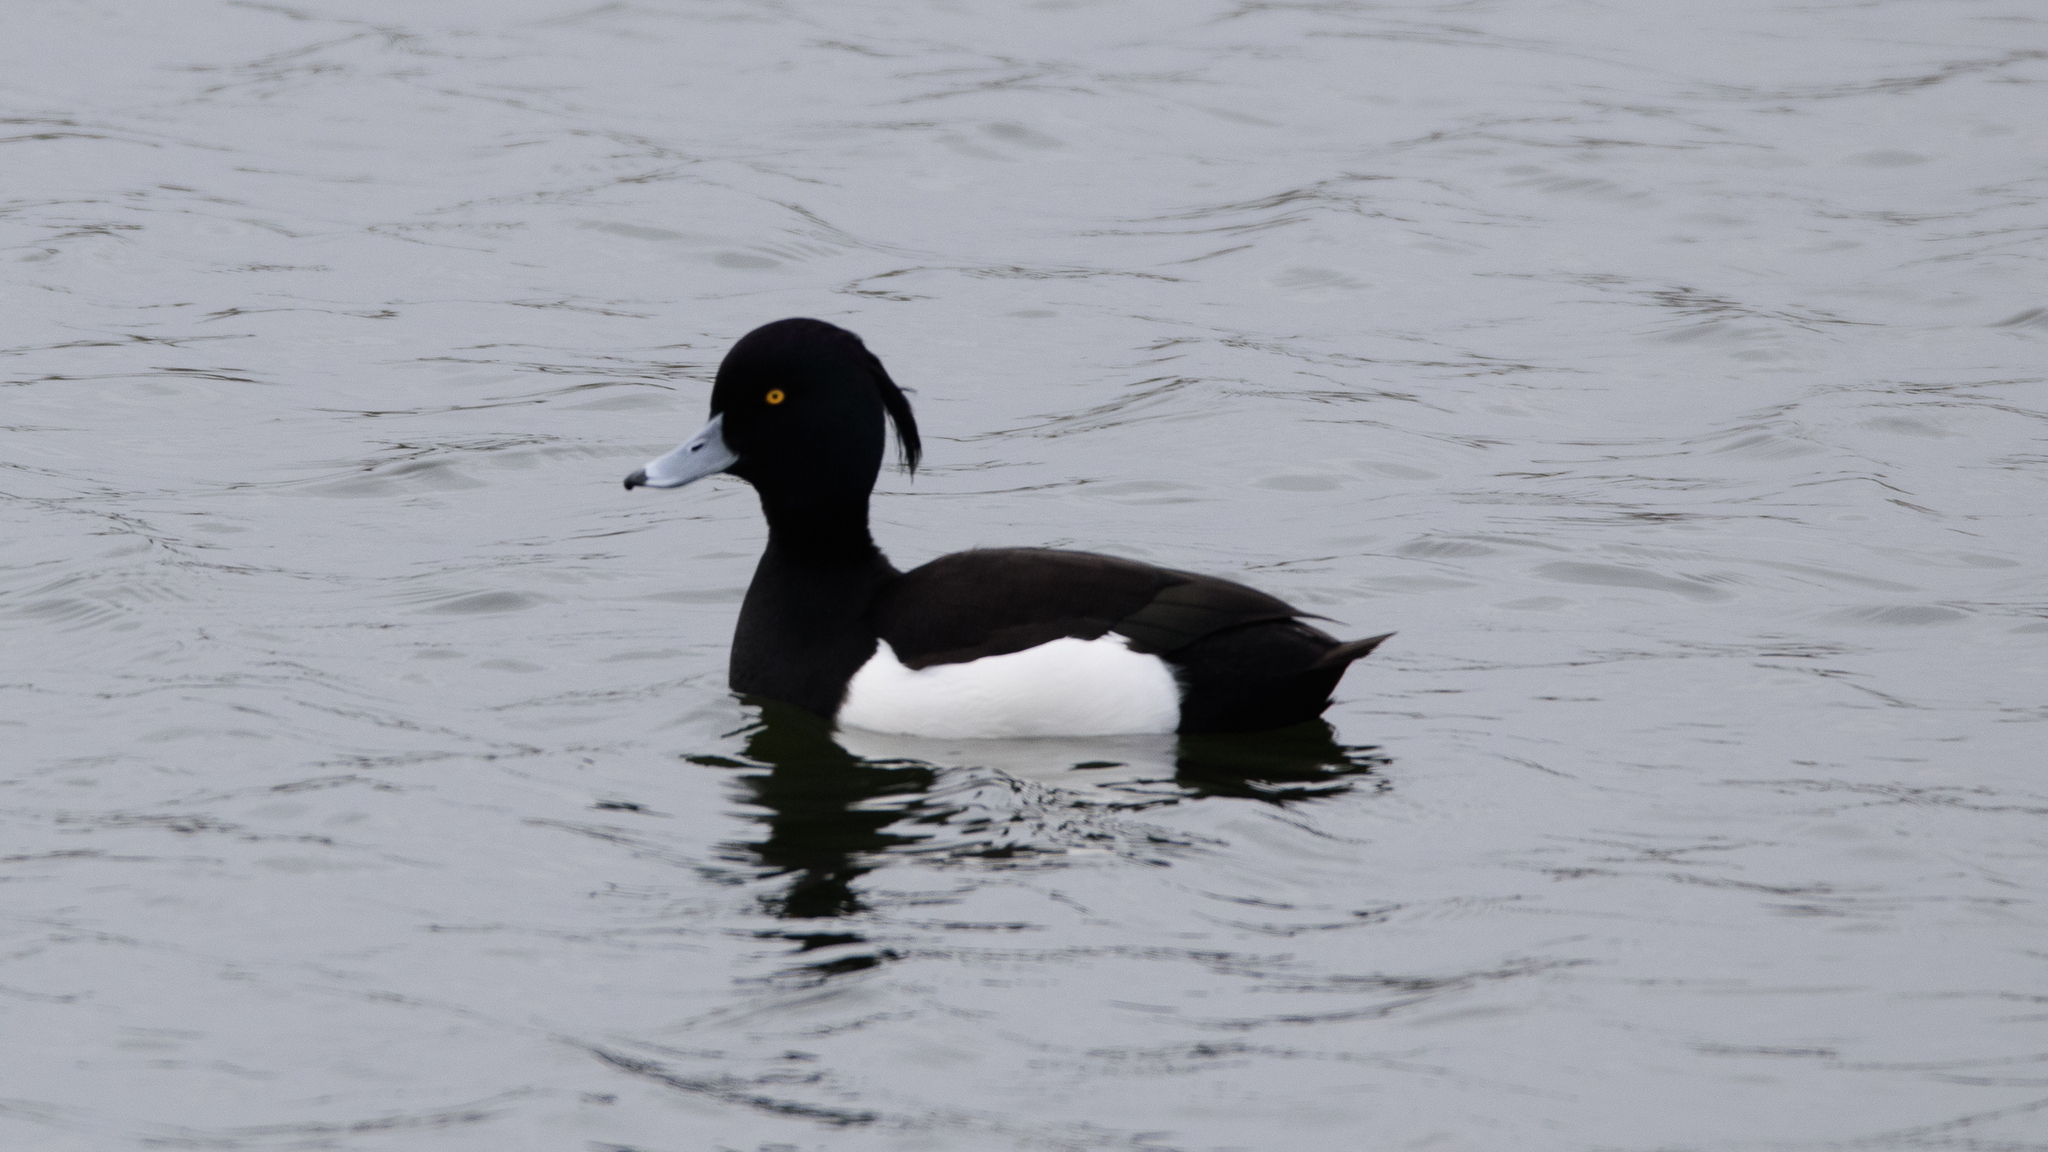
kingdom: Animalia
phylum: Chordata
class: Aves
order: Anseriformes
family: Anatidae
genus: Aythya
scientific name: Aythya fuligula
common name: Tufted duck
